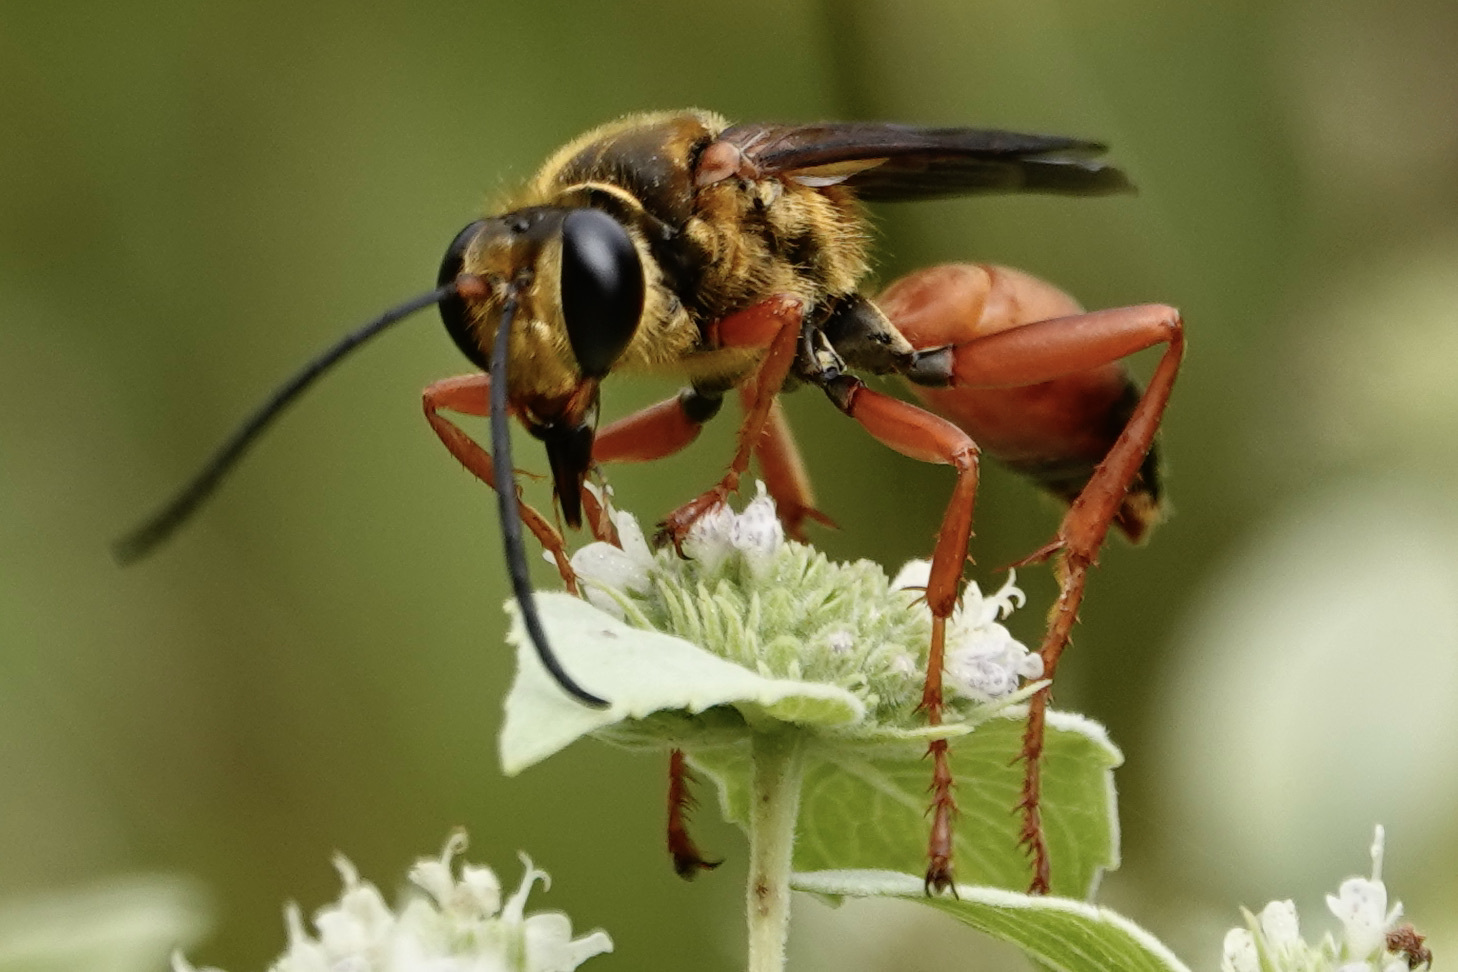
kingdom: Animalia
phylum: Arthropoda
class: Insecta
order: Hymenoptera
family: Sphecidae
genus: Sphex
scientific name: Sphex ichneumoneus
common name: Great golden digger wasp
